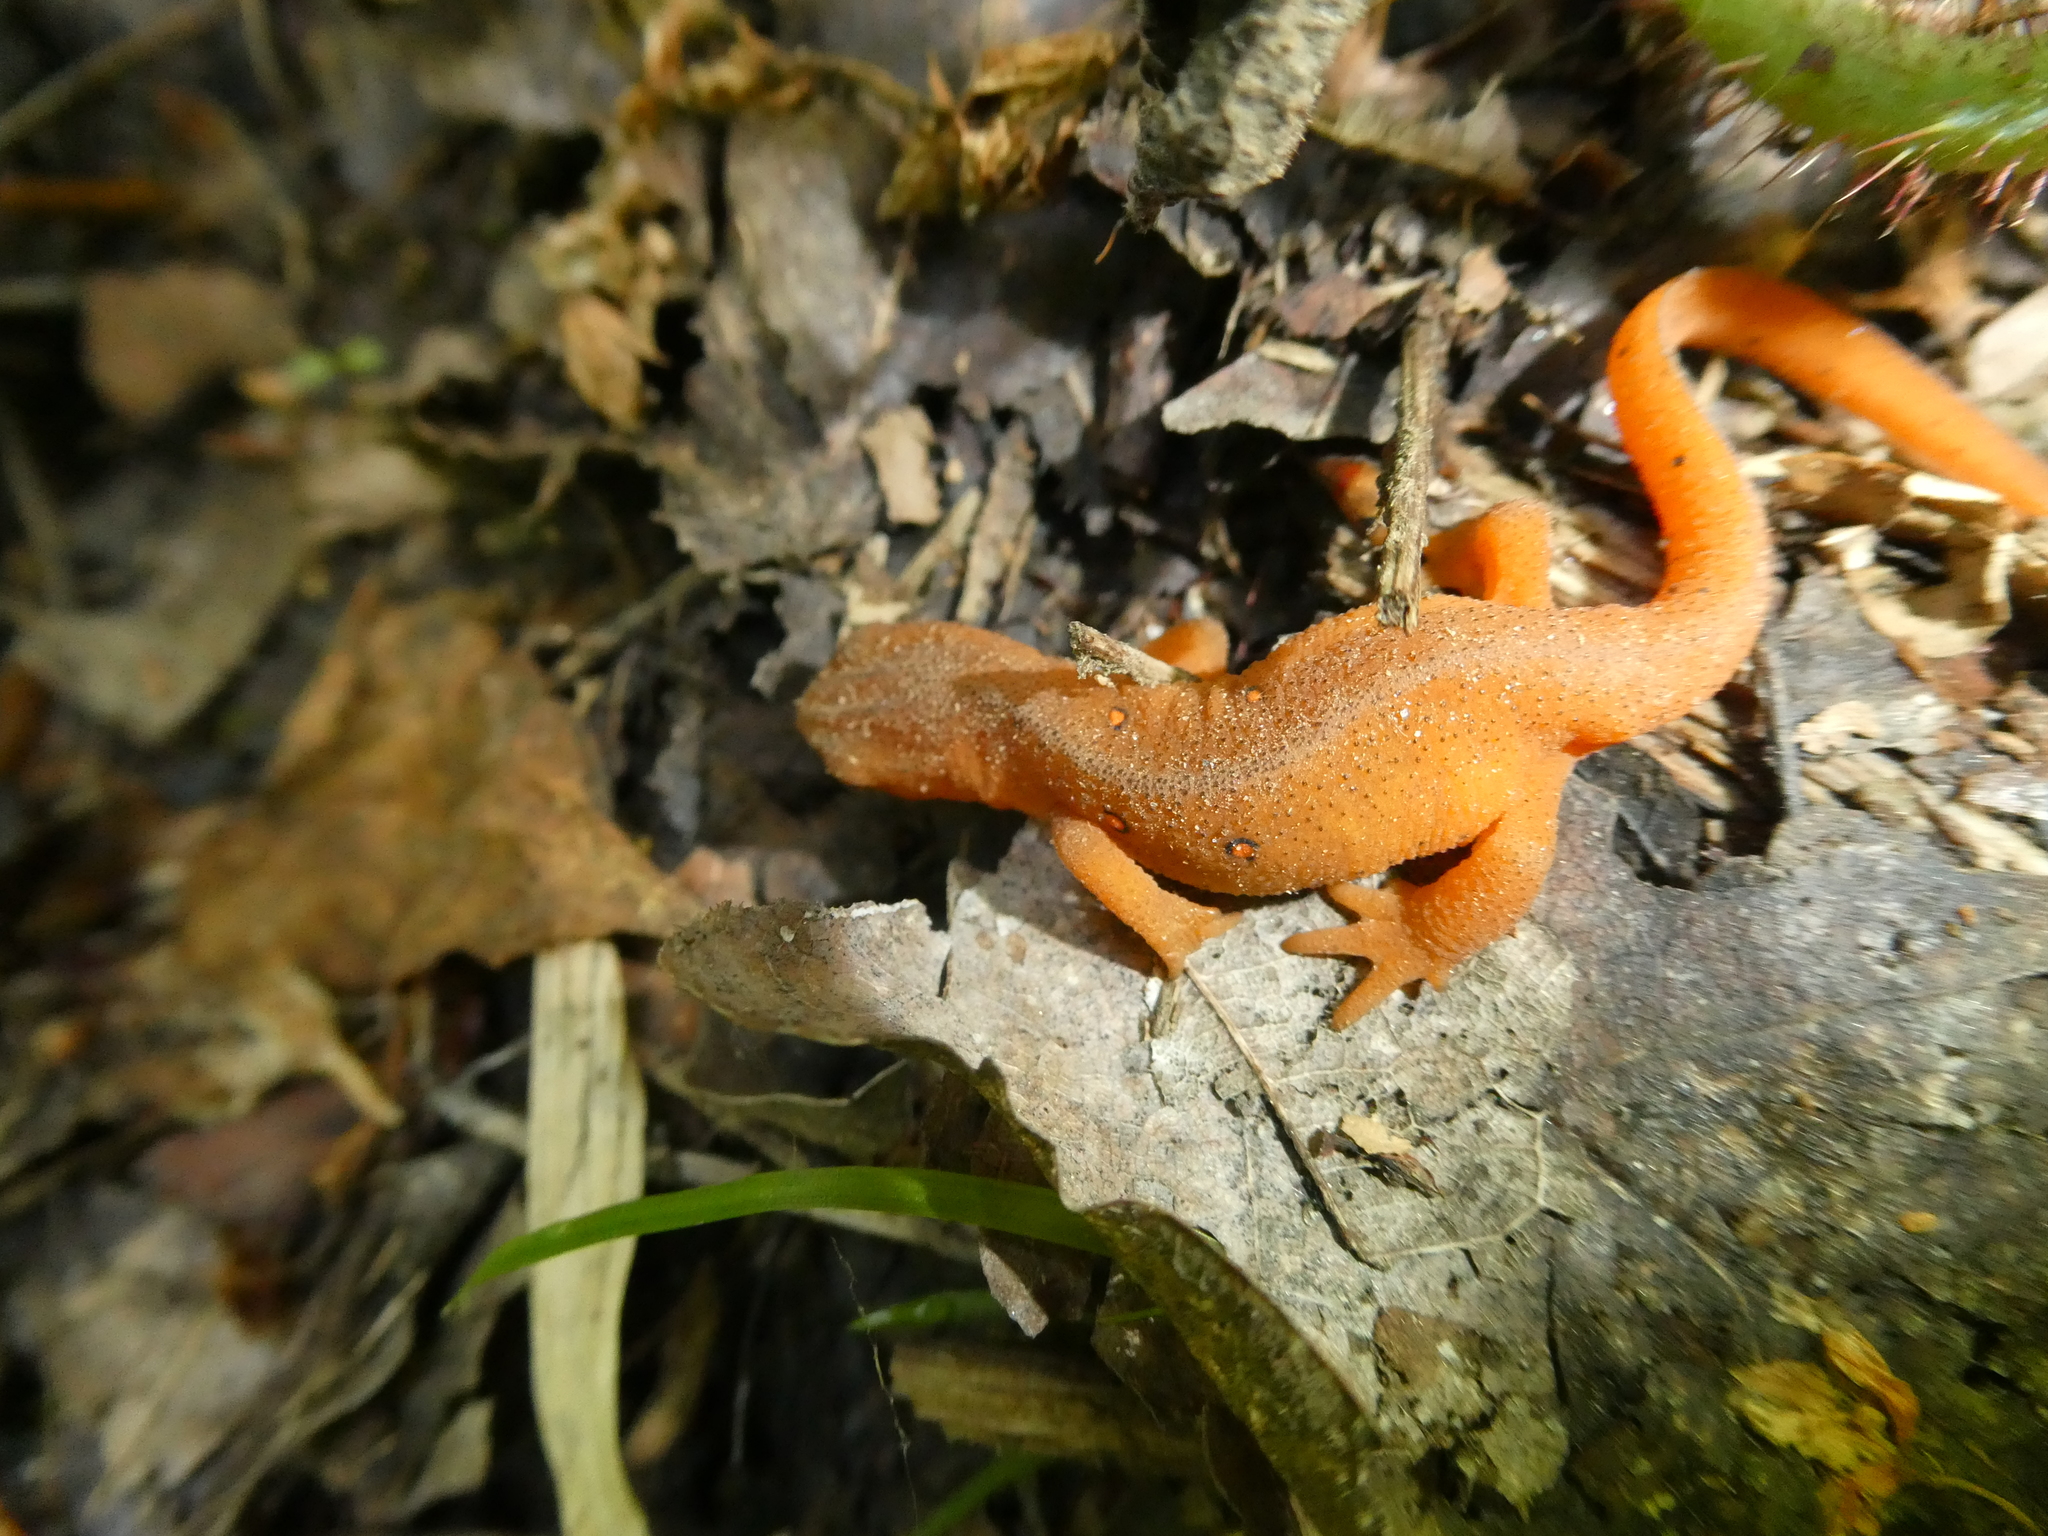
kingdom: Animalia
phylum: Chordata
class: Amphibia
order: Caudata
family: Salamandridae
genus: Notophthalmus
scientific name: Notophthalmus viridescens
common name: Eastern newt
